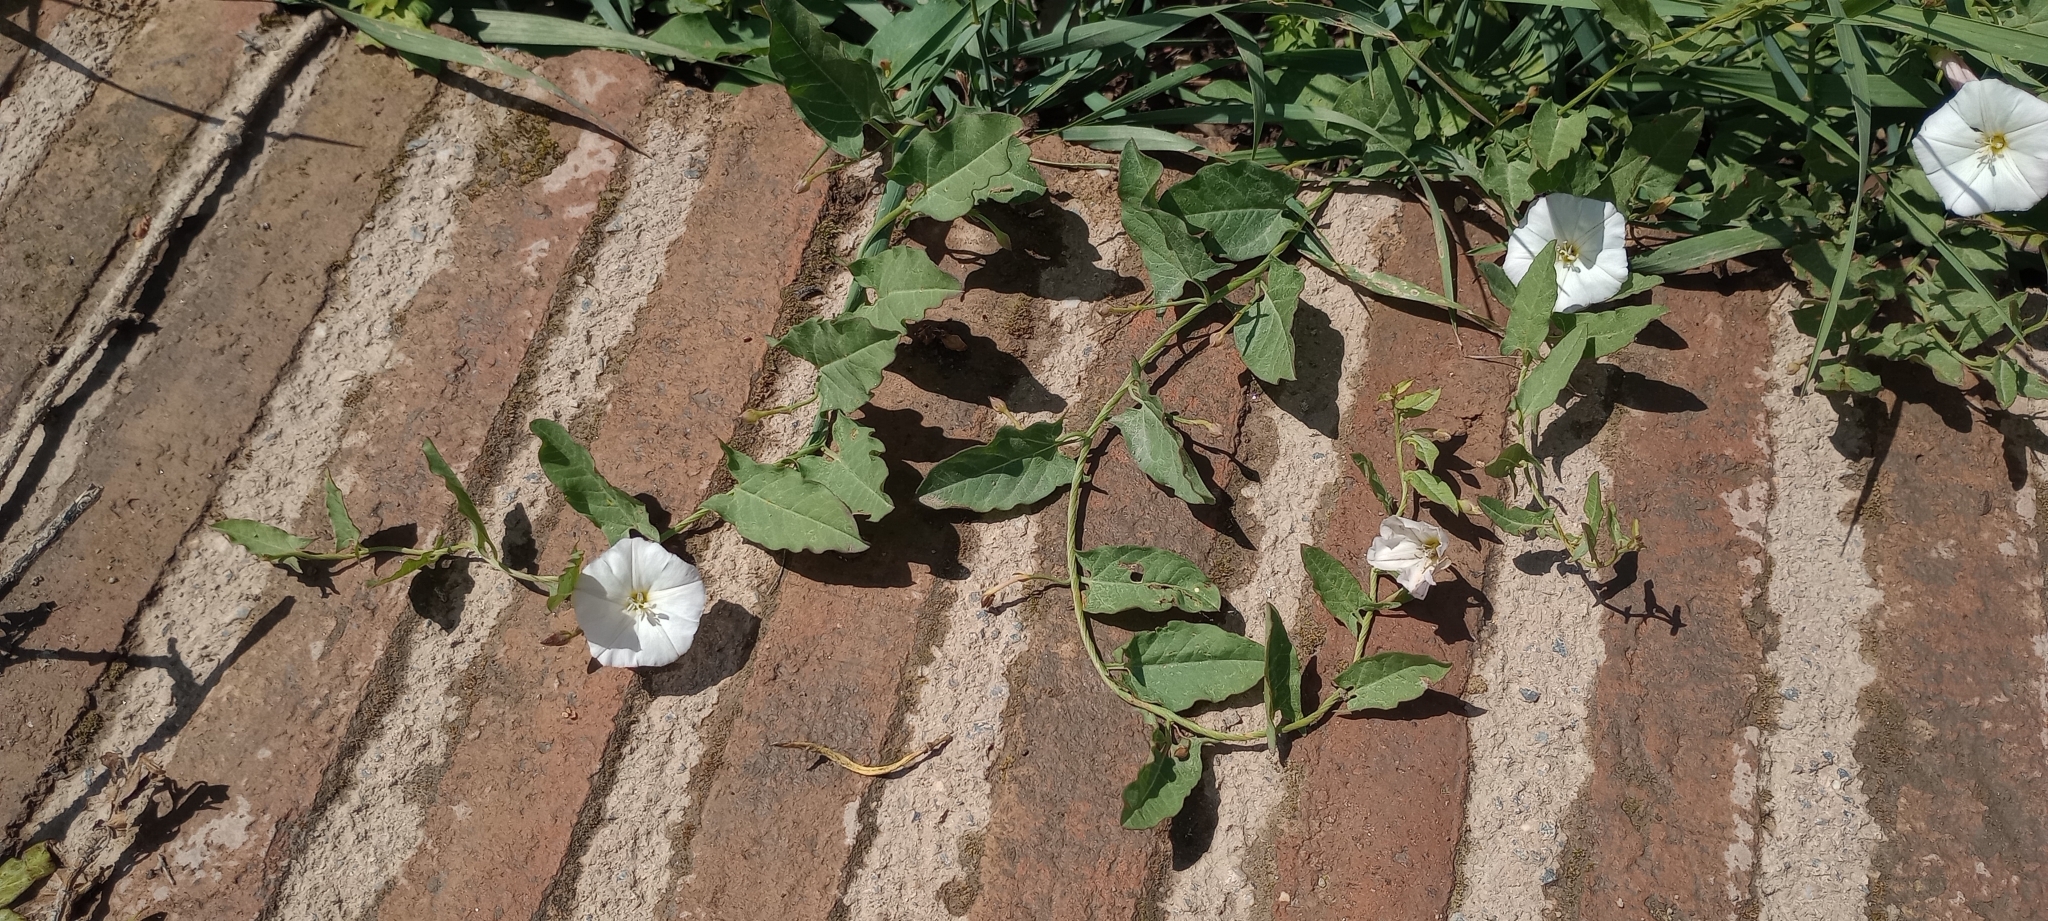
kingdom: Plantae
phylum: Tracheophyta
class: Magnoliopsida
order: Solanales
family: Convolvulaceae
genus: Convolvulus
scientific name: Convolvulus arvensis
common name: Field bindweed
